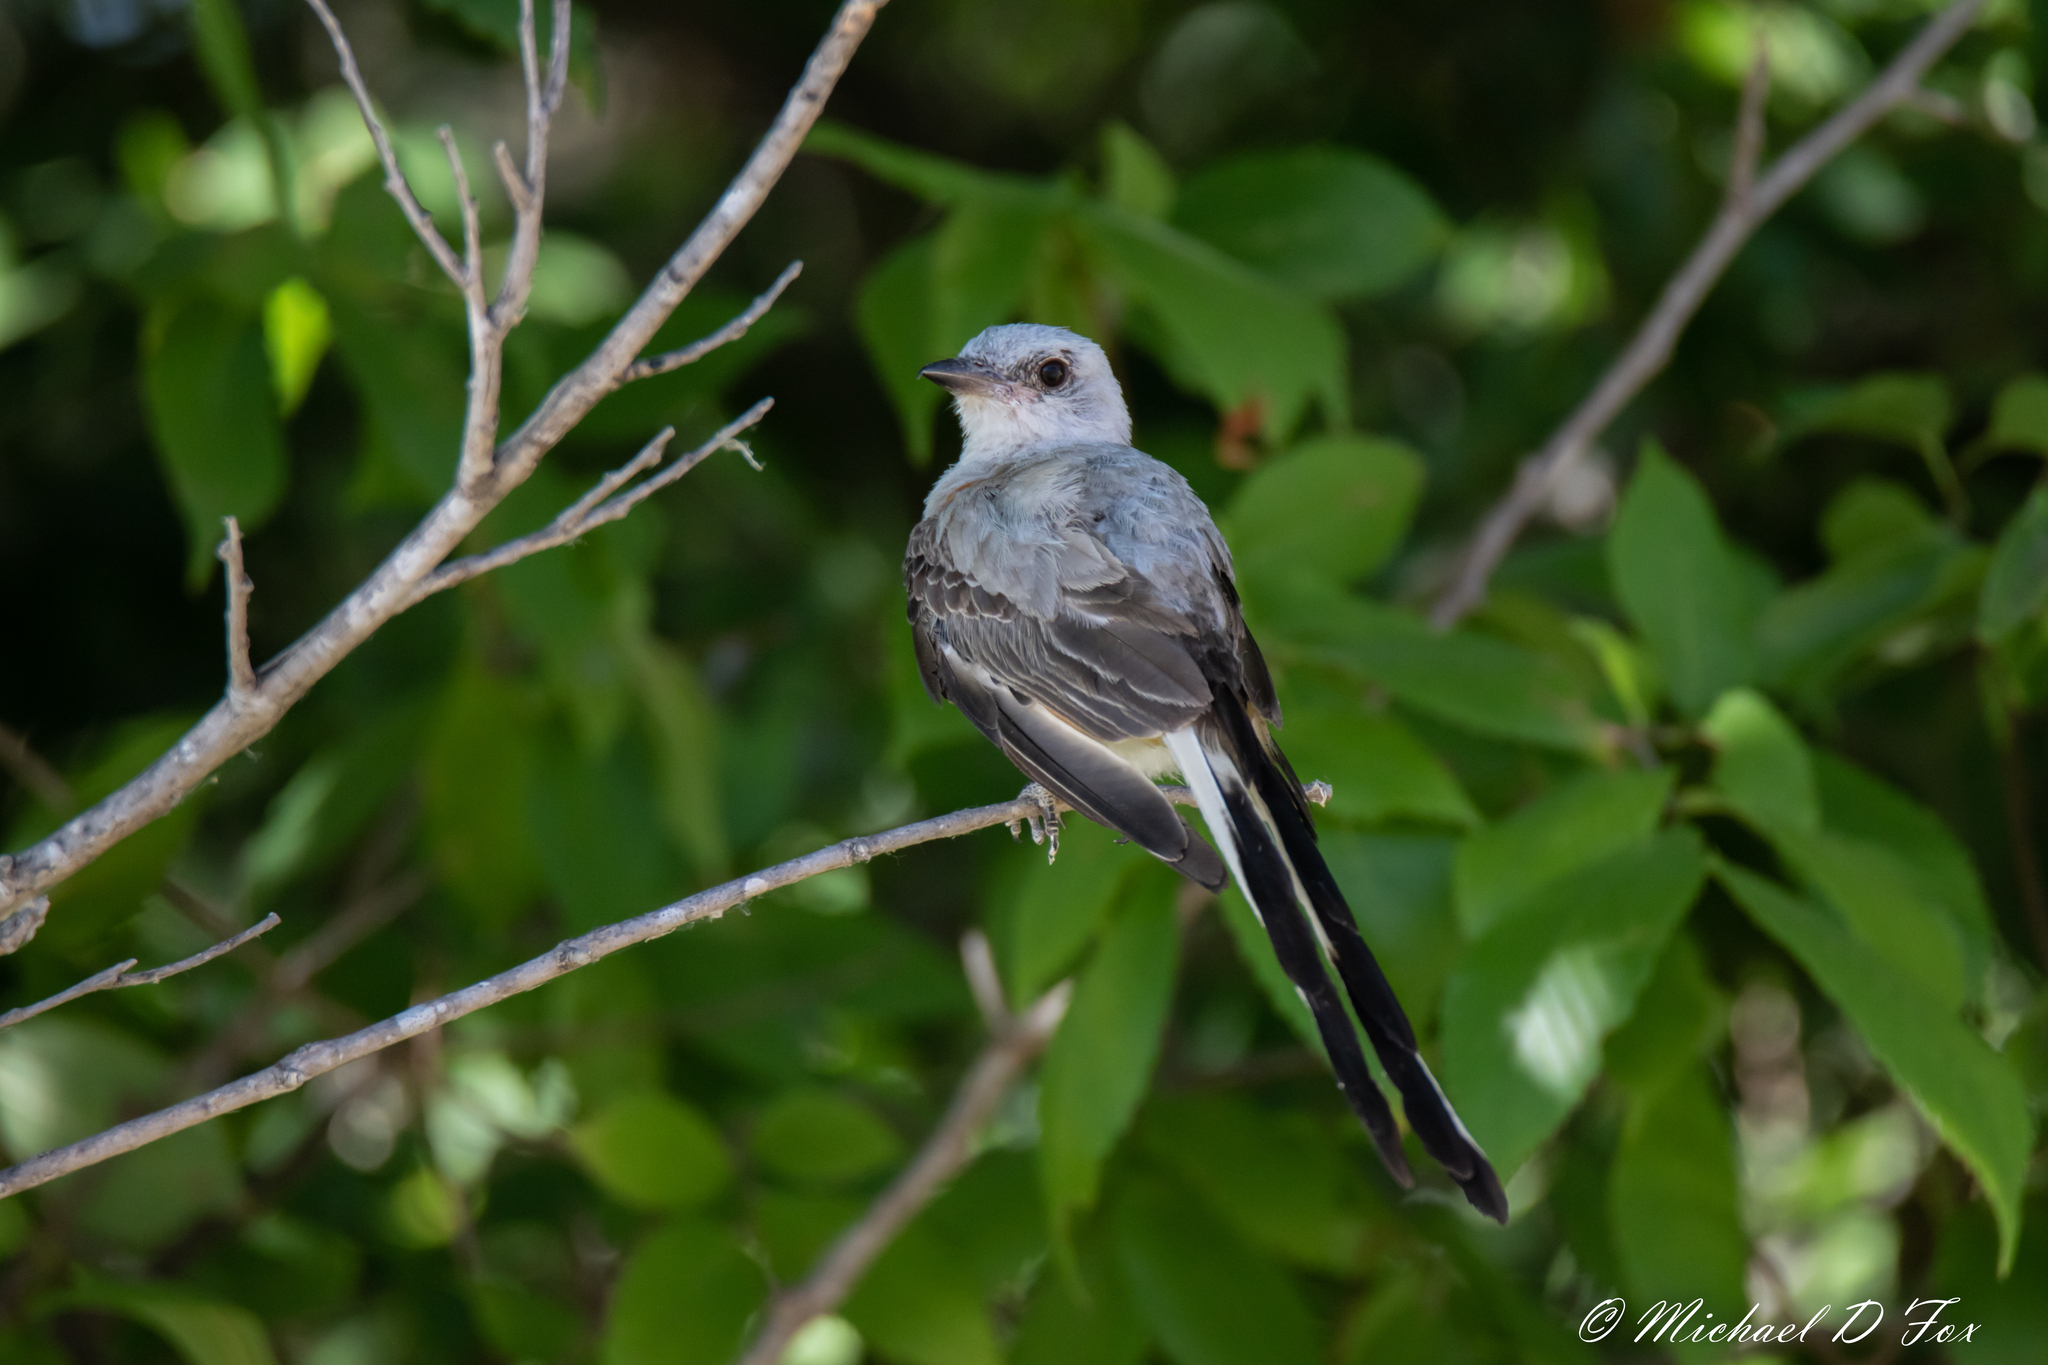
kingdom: Animalia
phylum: Chordata
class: Aves
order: Passeriformes
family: Tyrannidae
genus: Tyrannus
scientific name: Tyrannus forficatus
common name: Scissor-tailed flycatcher
